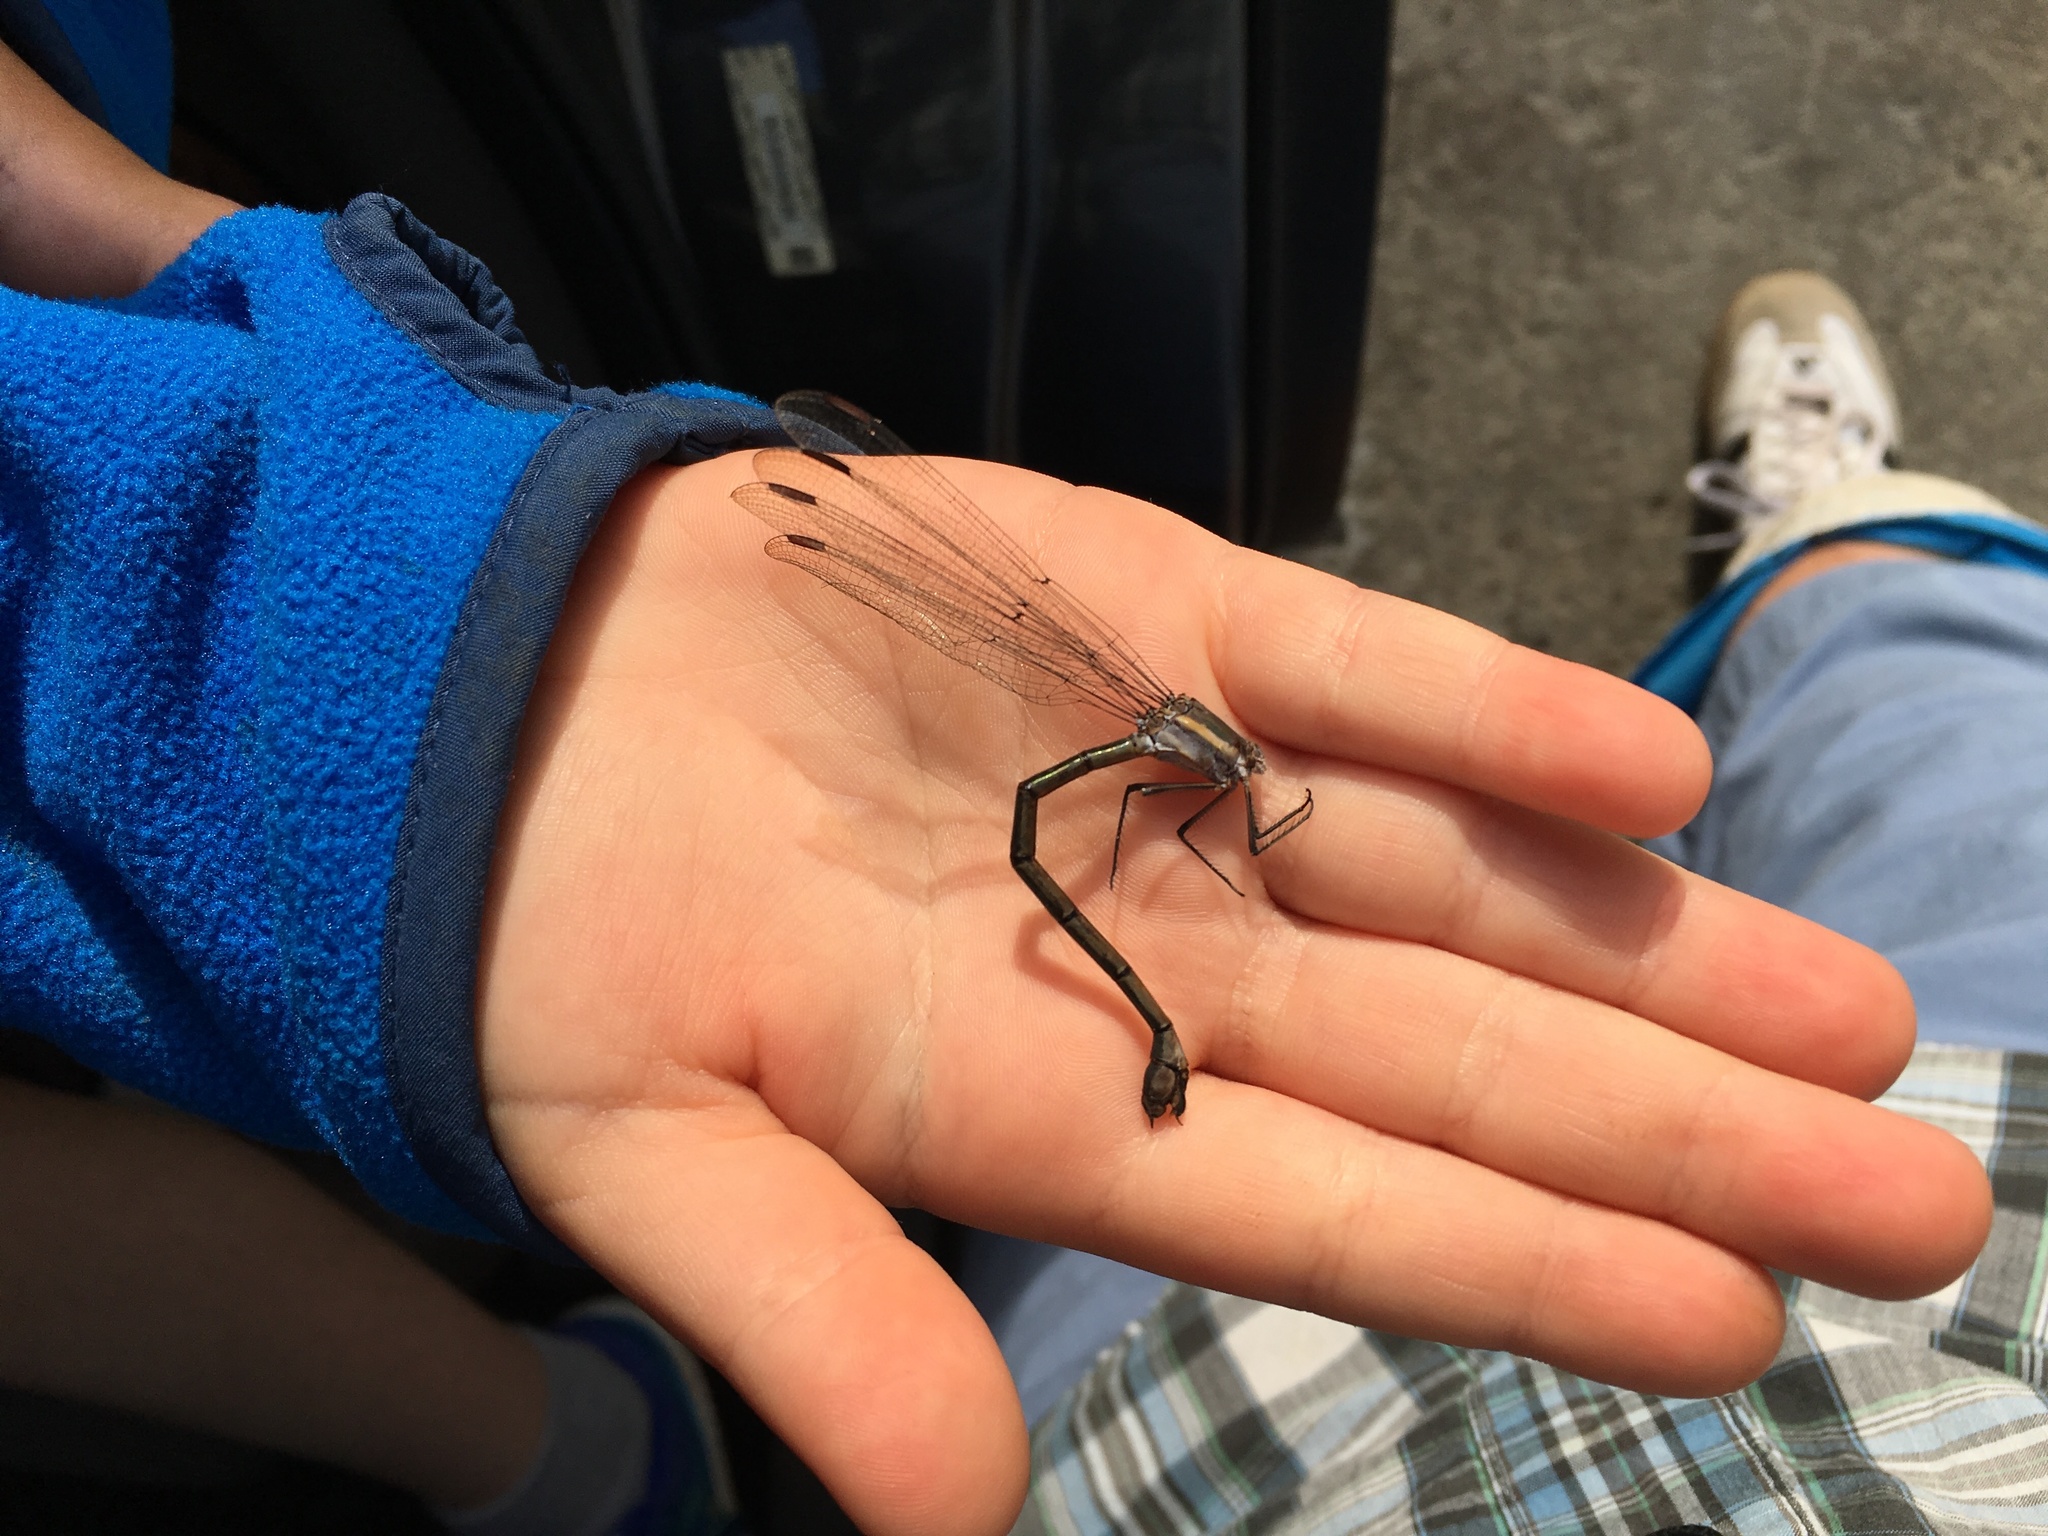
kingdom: Animalia
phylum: Arthropoda
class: Insecta
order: Odonata
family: Lestidae
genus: Archilestes
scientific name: Archilestes grandis
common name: Great spreadwing
